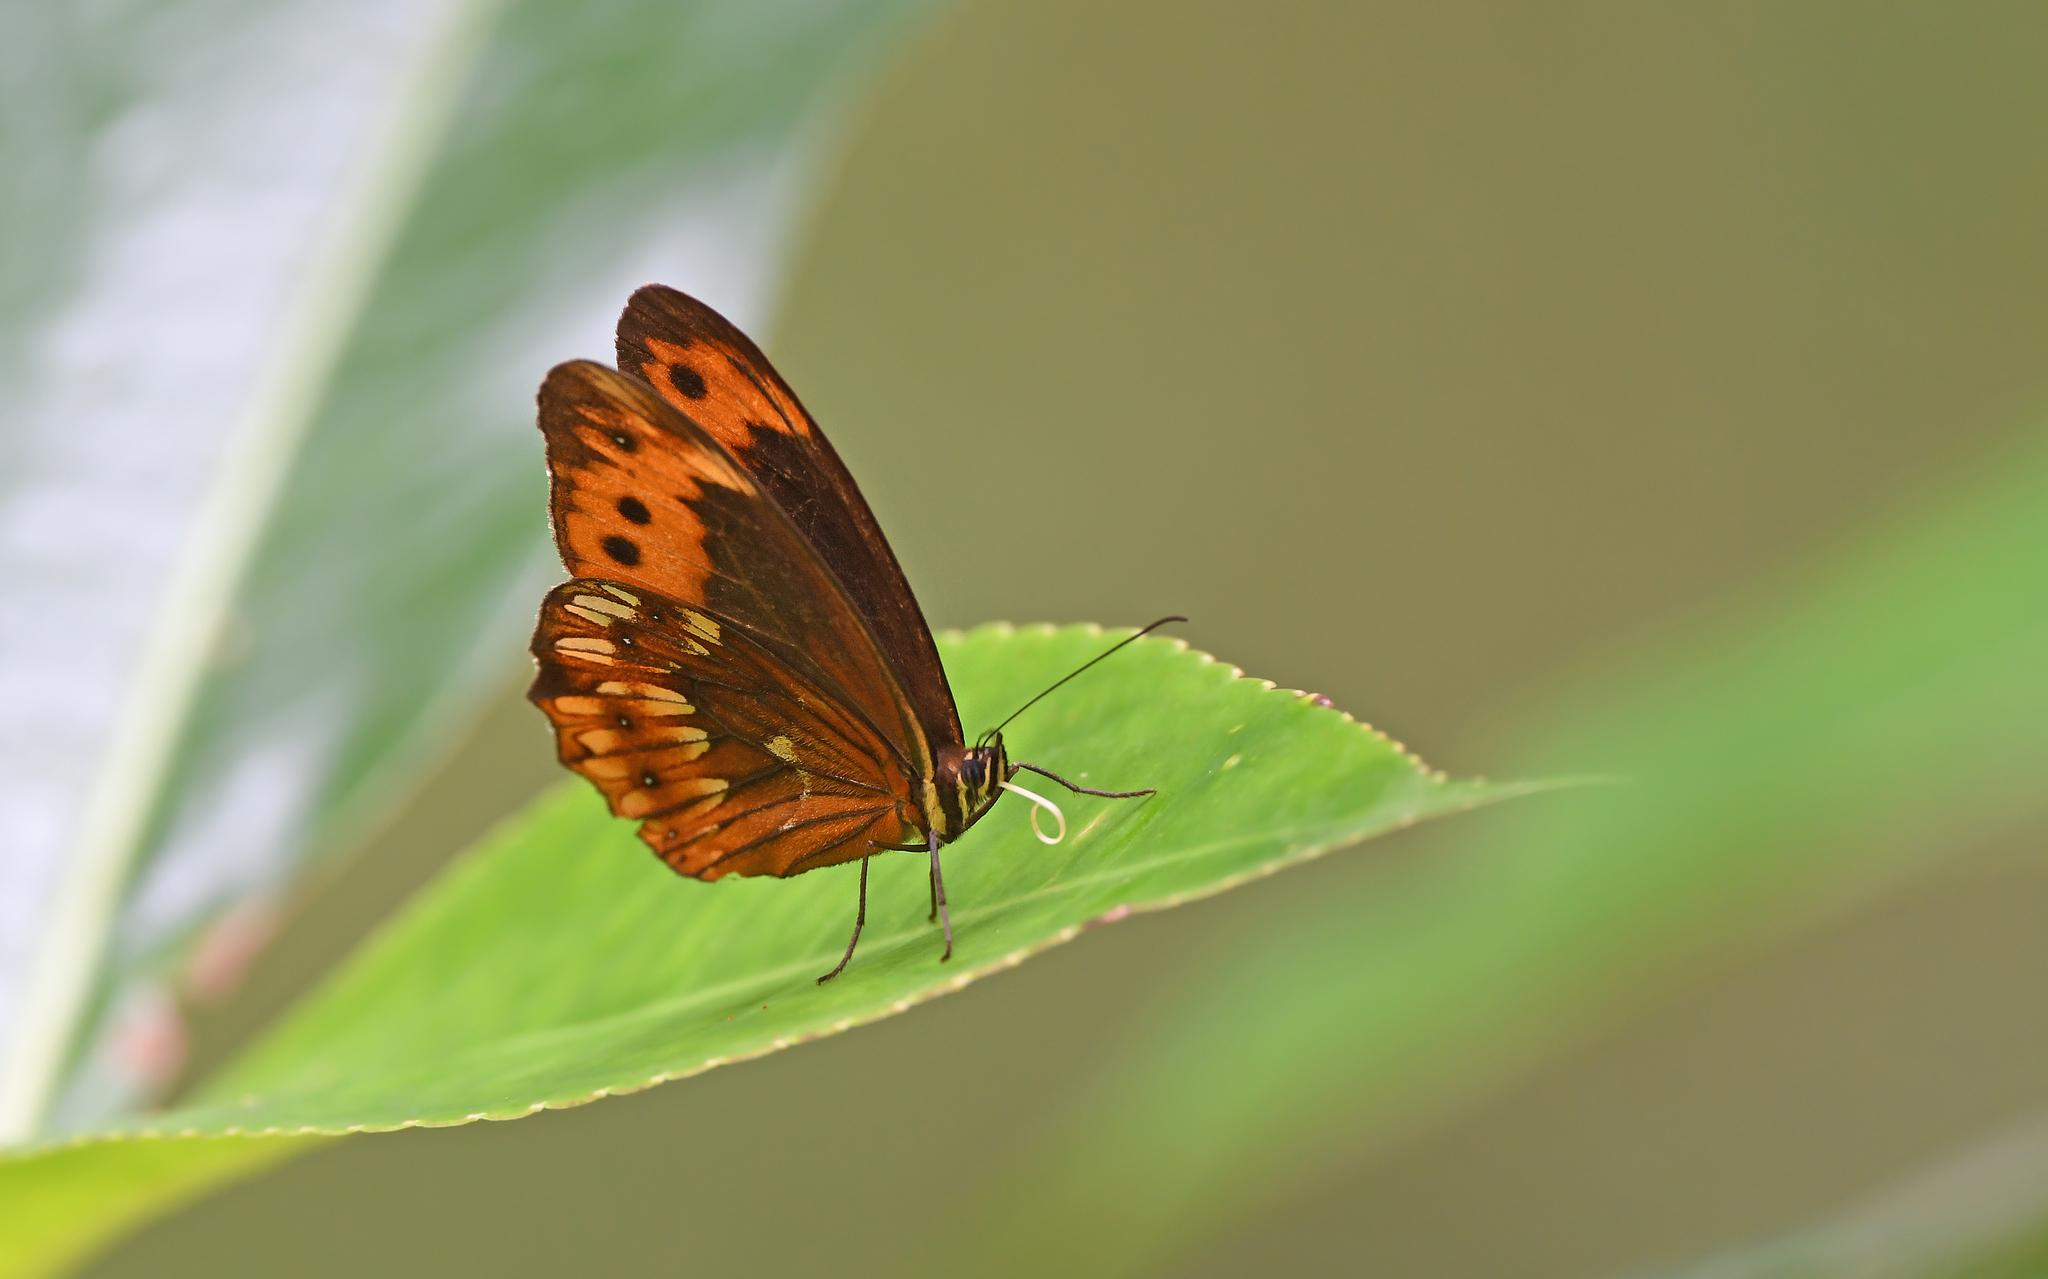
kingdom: Animalia
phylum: Arthropoda
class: Insecta
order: Lepidoptera
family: Nymphalidae
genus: Oxeoschistus
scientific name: Oxeoschistus pronax
